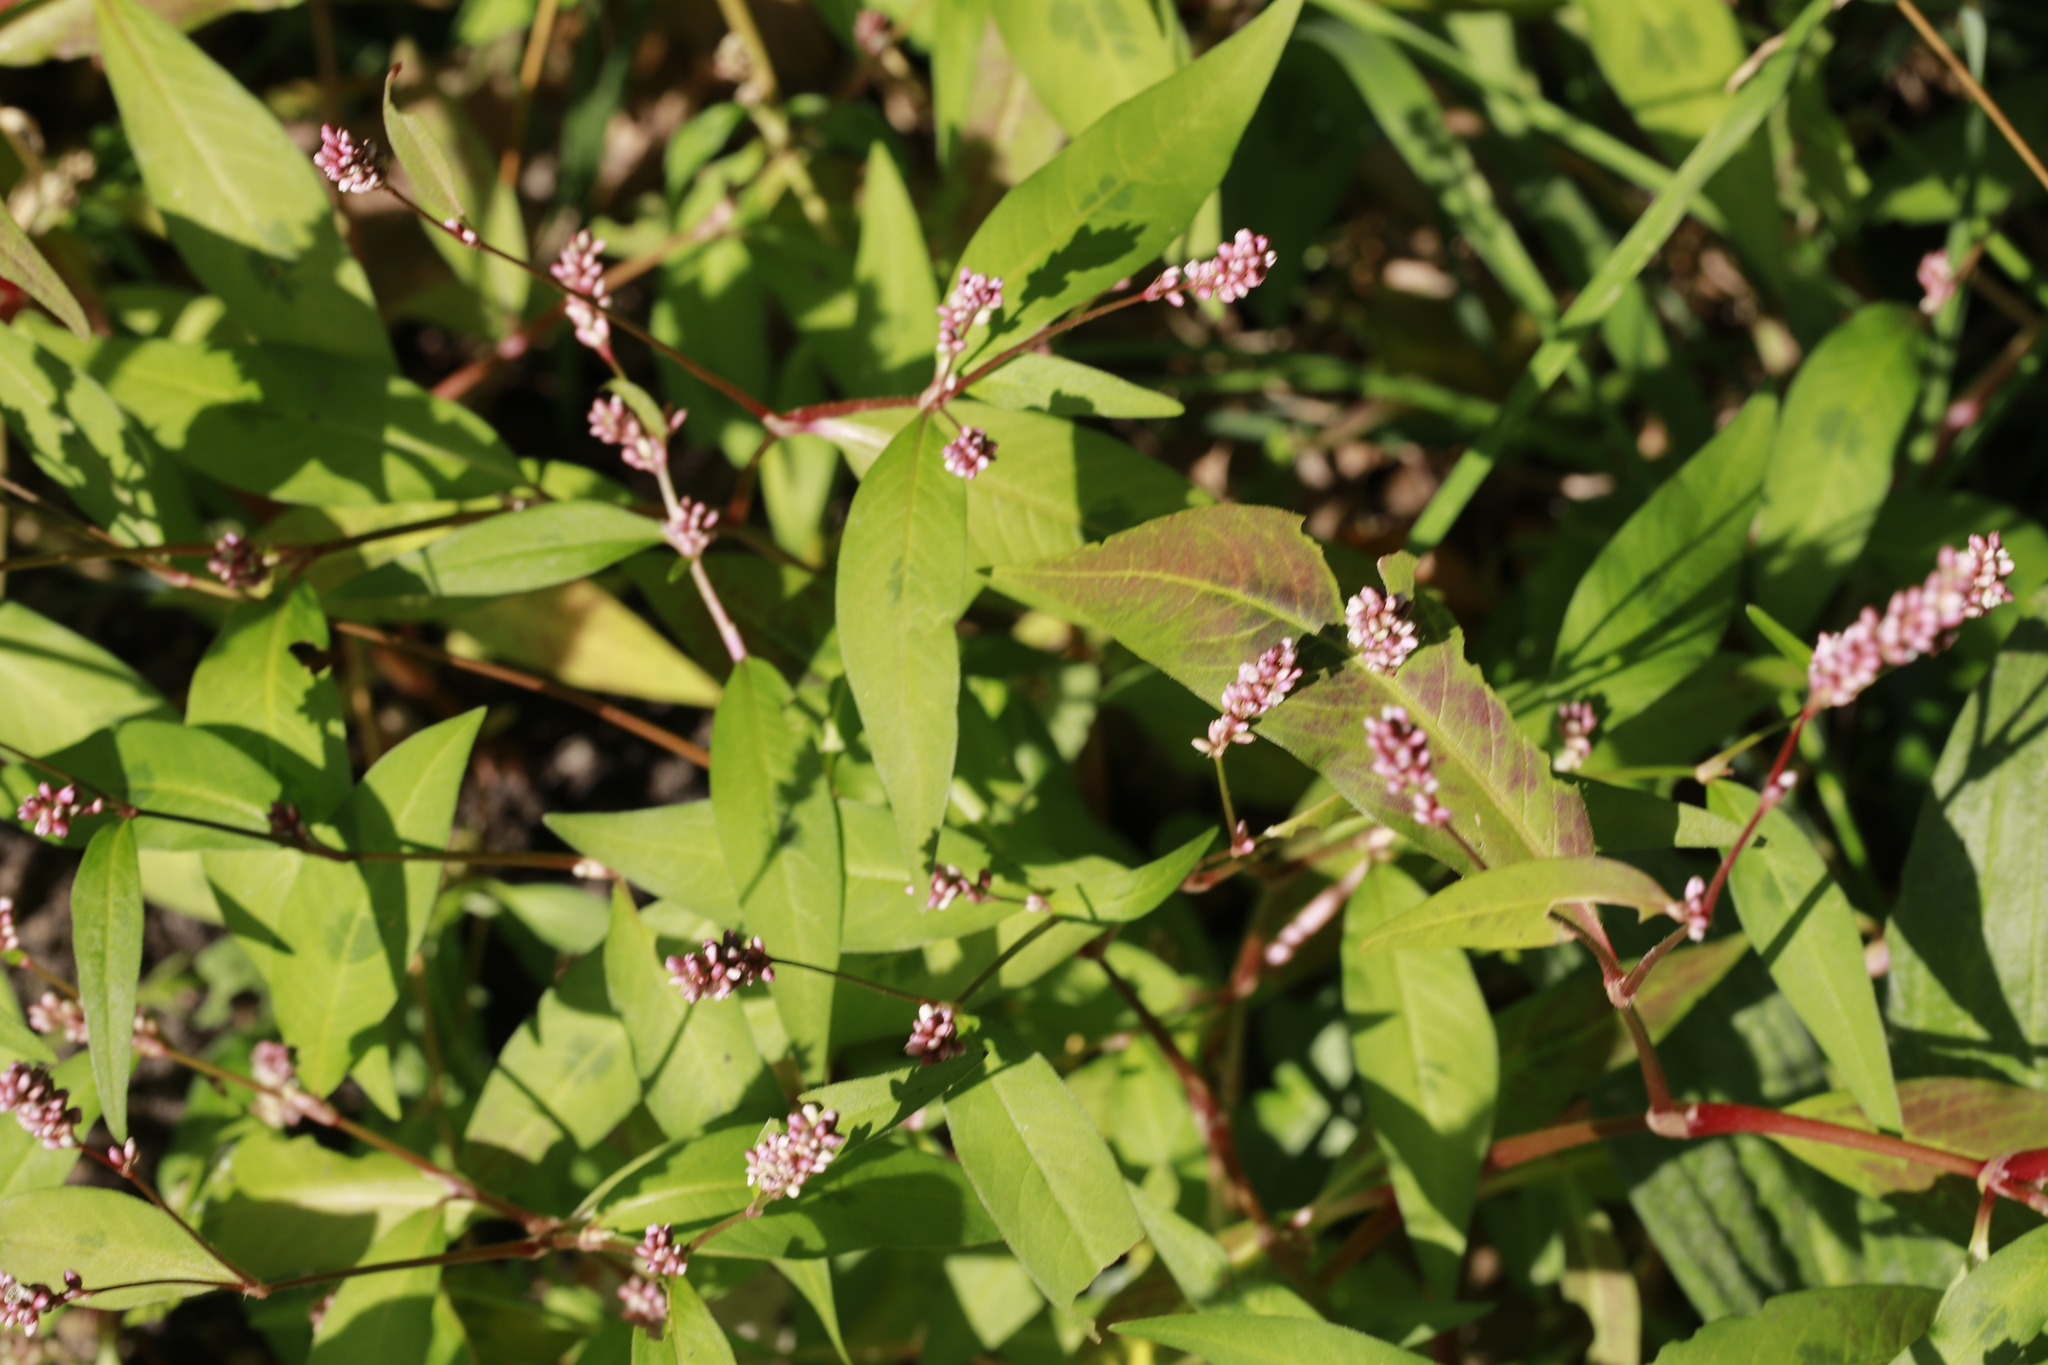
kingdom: Plantae
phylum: Tracheophyta
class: Magnoliopsida
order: Caryophyllales
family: Polygonaceae
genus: Persicaria
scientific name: Persicaria maculosa
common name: Redshank
